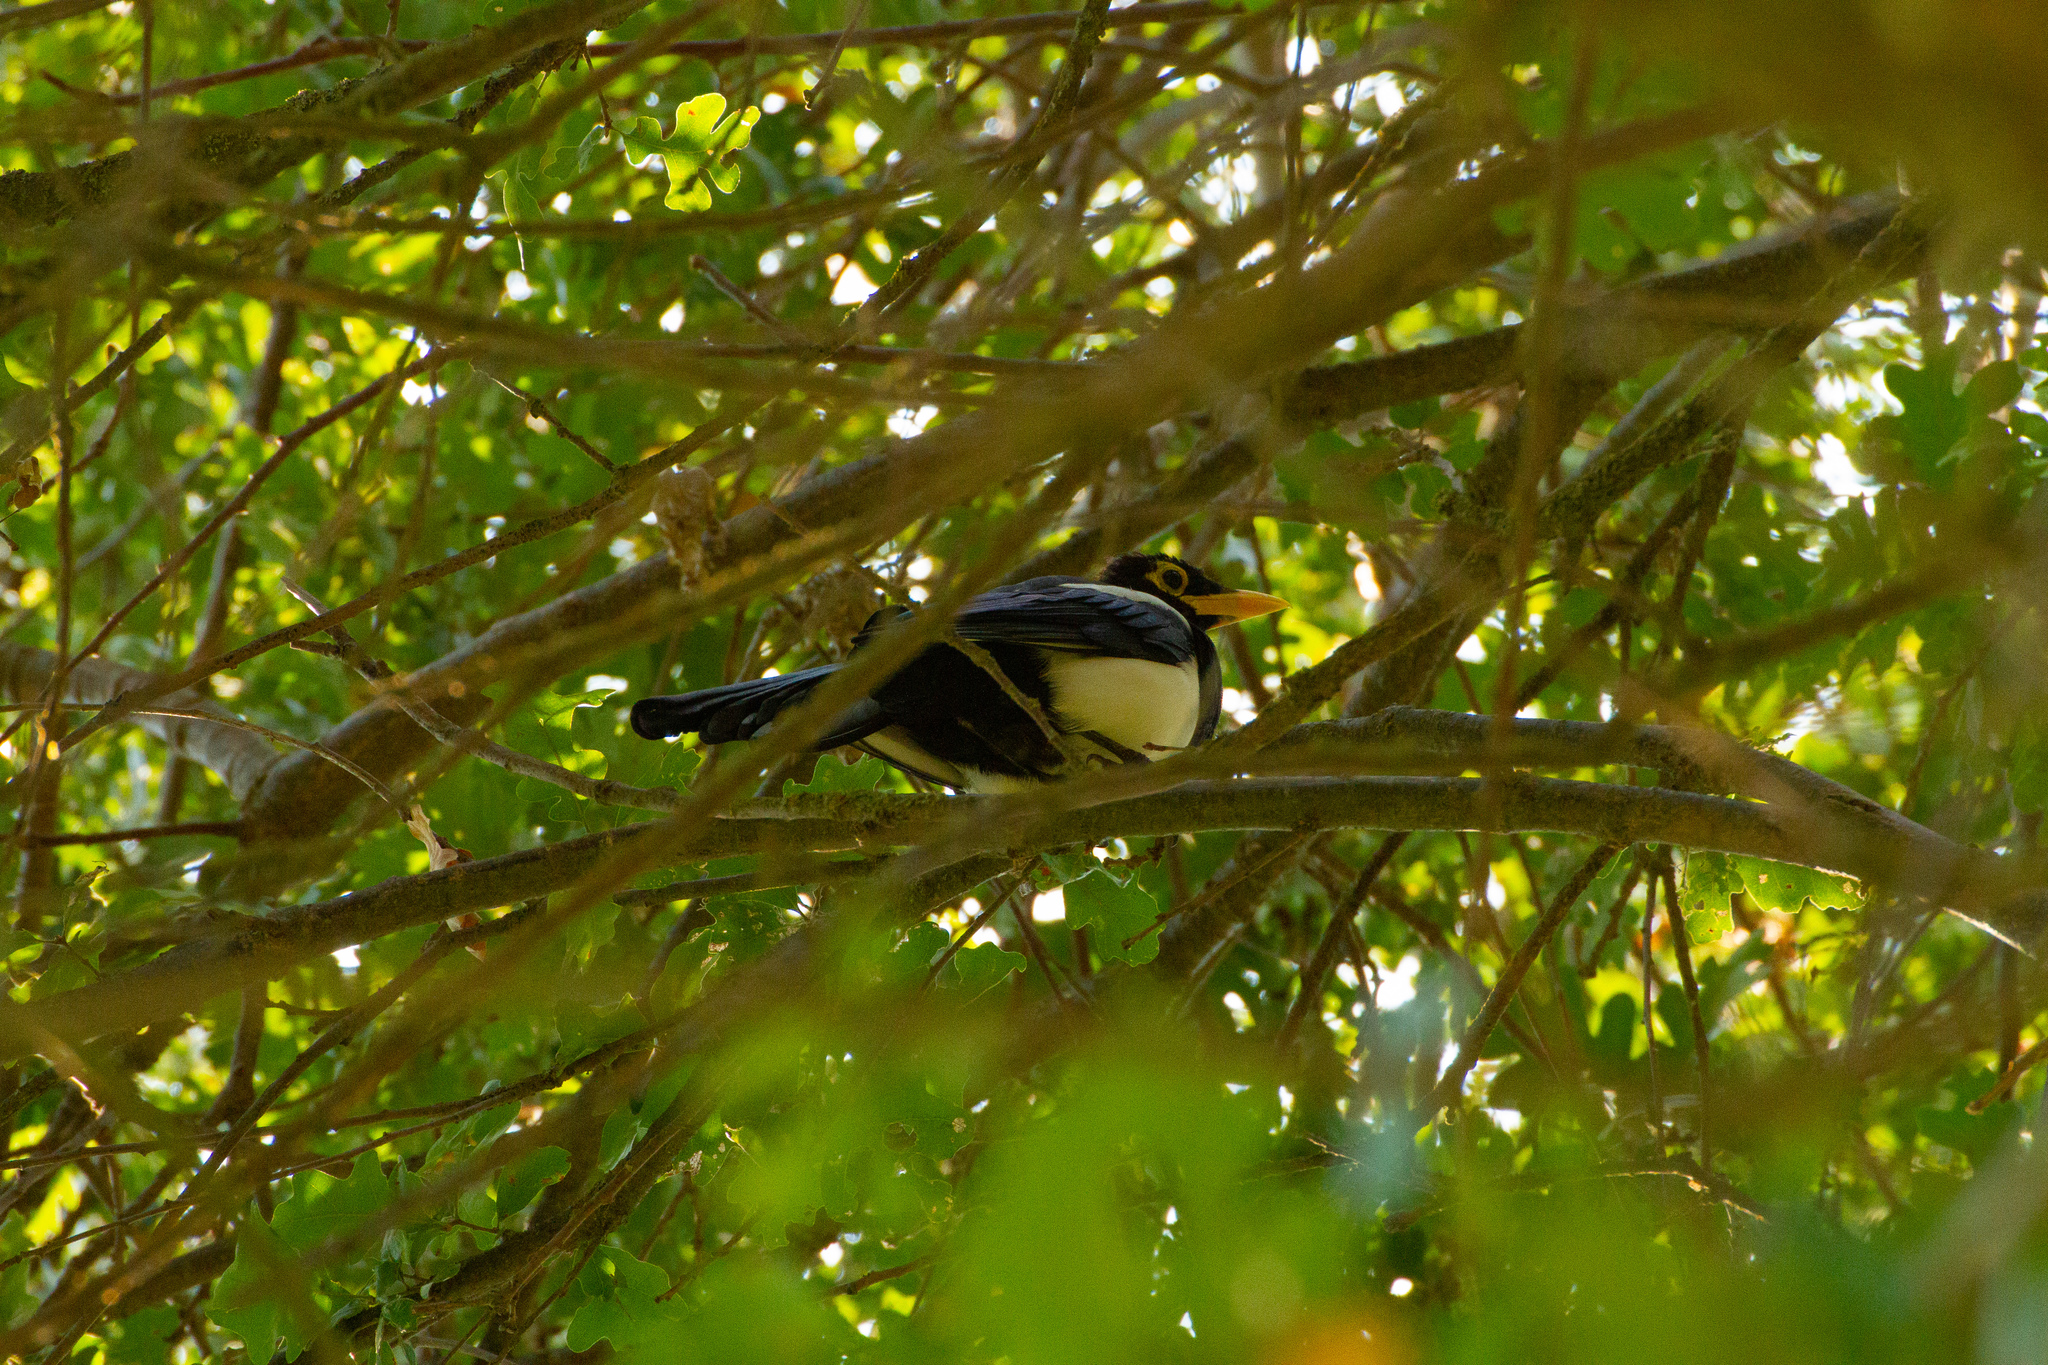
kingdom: Animalia
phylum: Chordata
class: Aves
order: Passeriformes
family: Corvidae
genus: Pica
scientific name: Pica nuttalli
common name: Yellow-billed magpie
